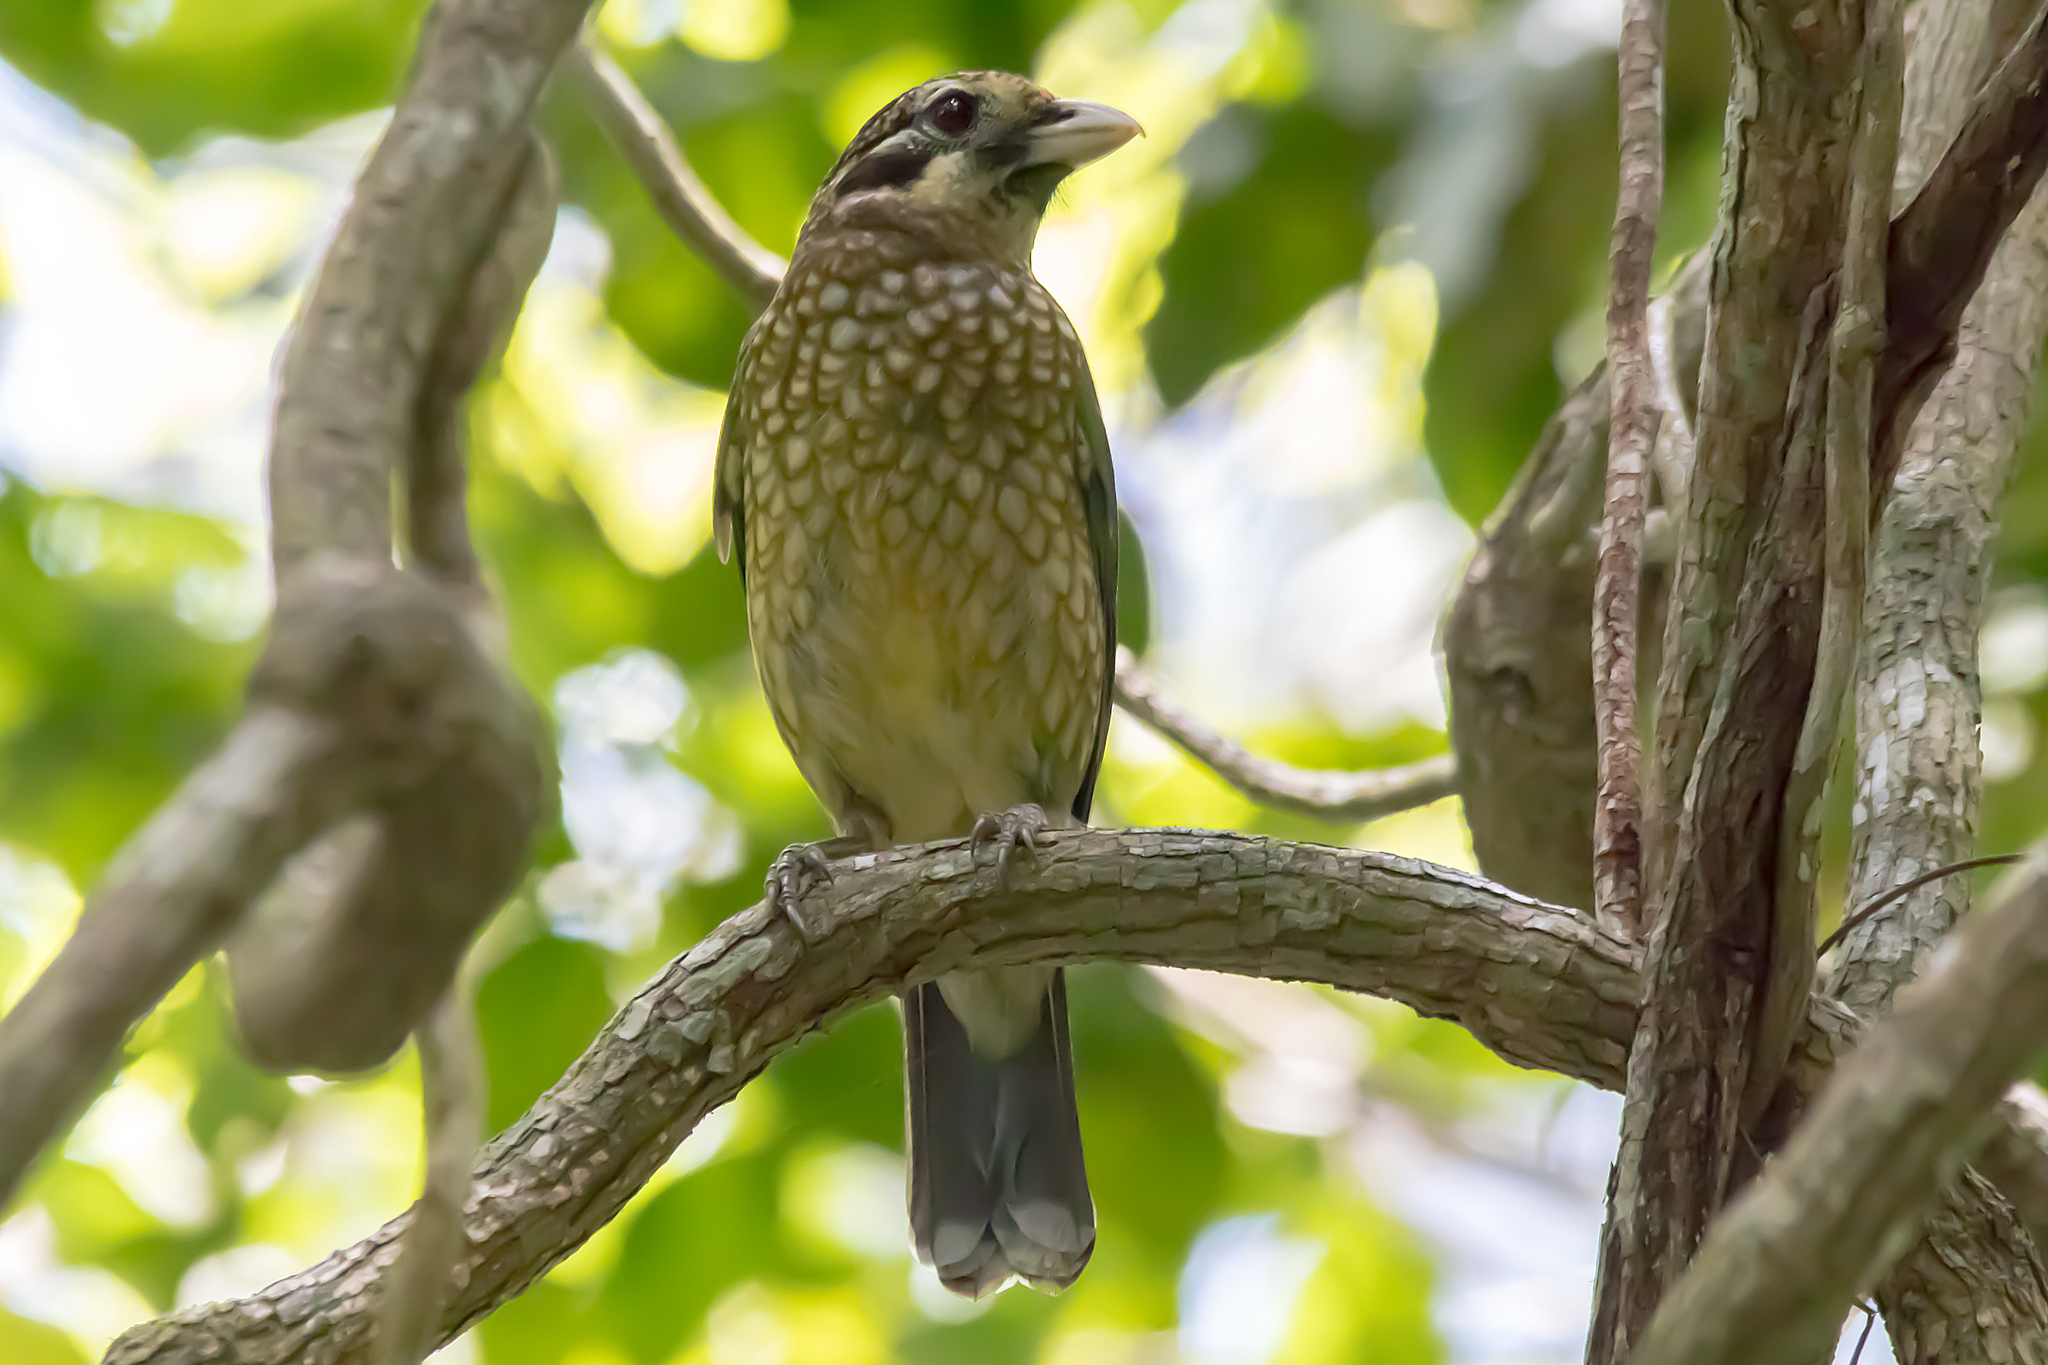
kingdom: Animalia
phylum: Chordata
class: Aves
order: Passeriformes
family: Ptilonorhynchidae
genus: Ailuroedus
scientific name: Ailuroedus maculosus
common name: Spotted catbird
